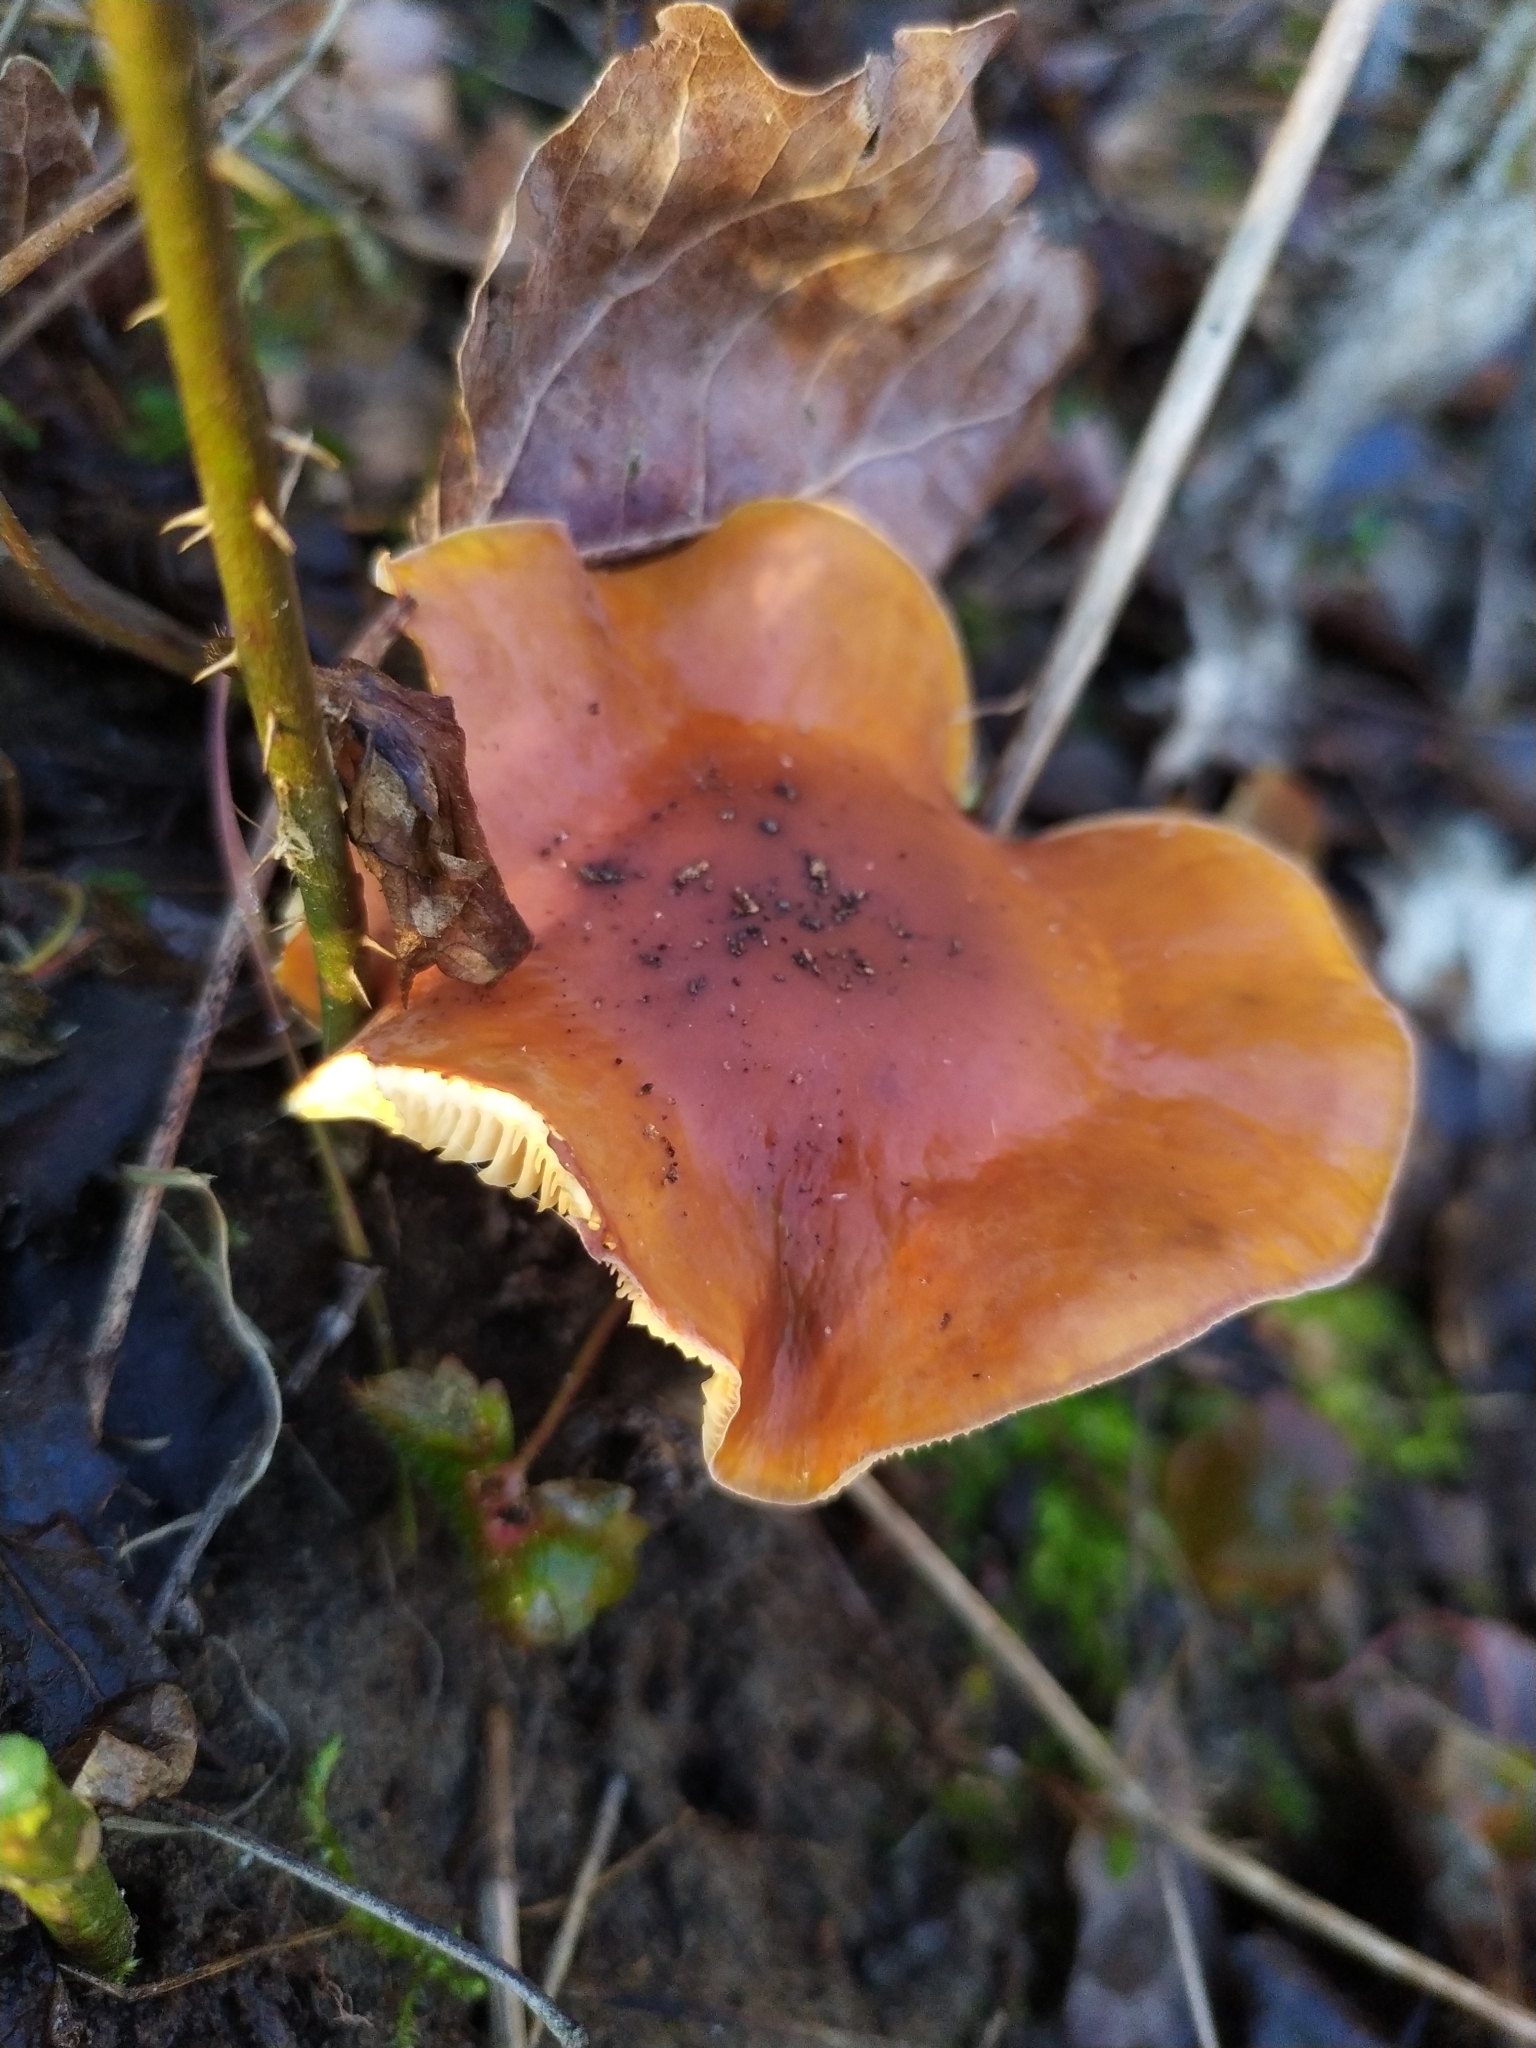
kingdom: Fungi
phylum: Basidiomycota
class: Agaricomycetes
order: Agaricales
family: Physalacriaceae
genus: Flammulina
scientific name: Flammulina
